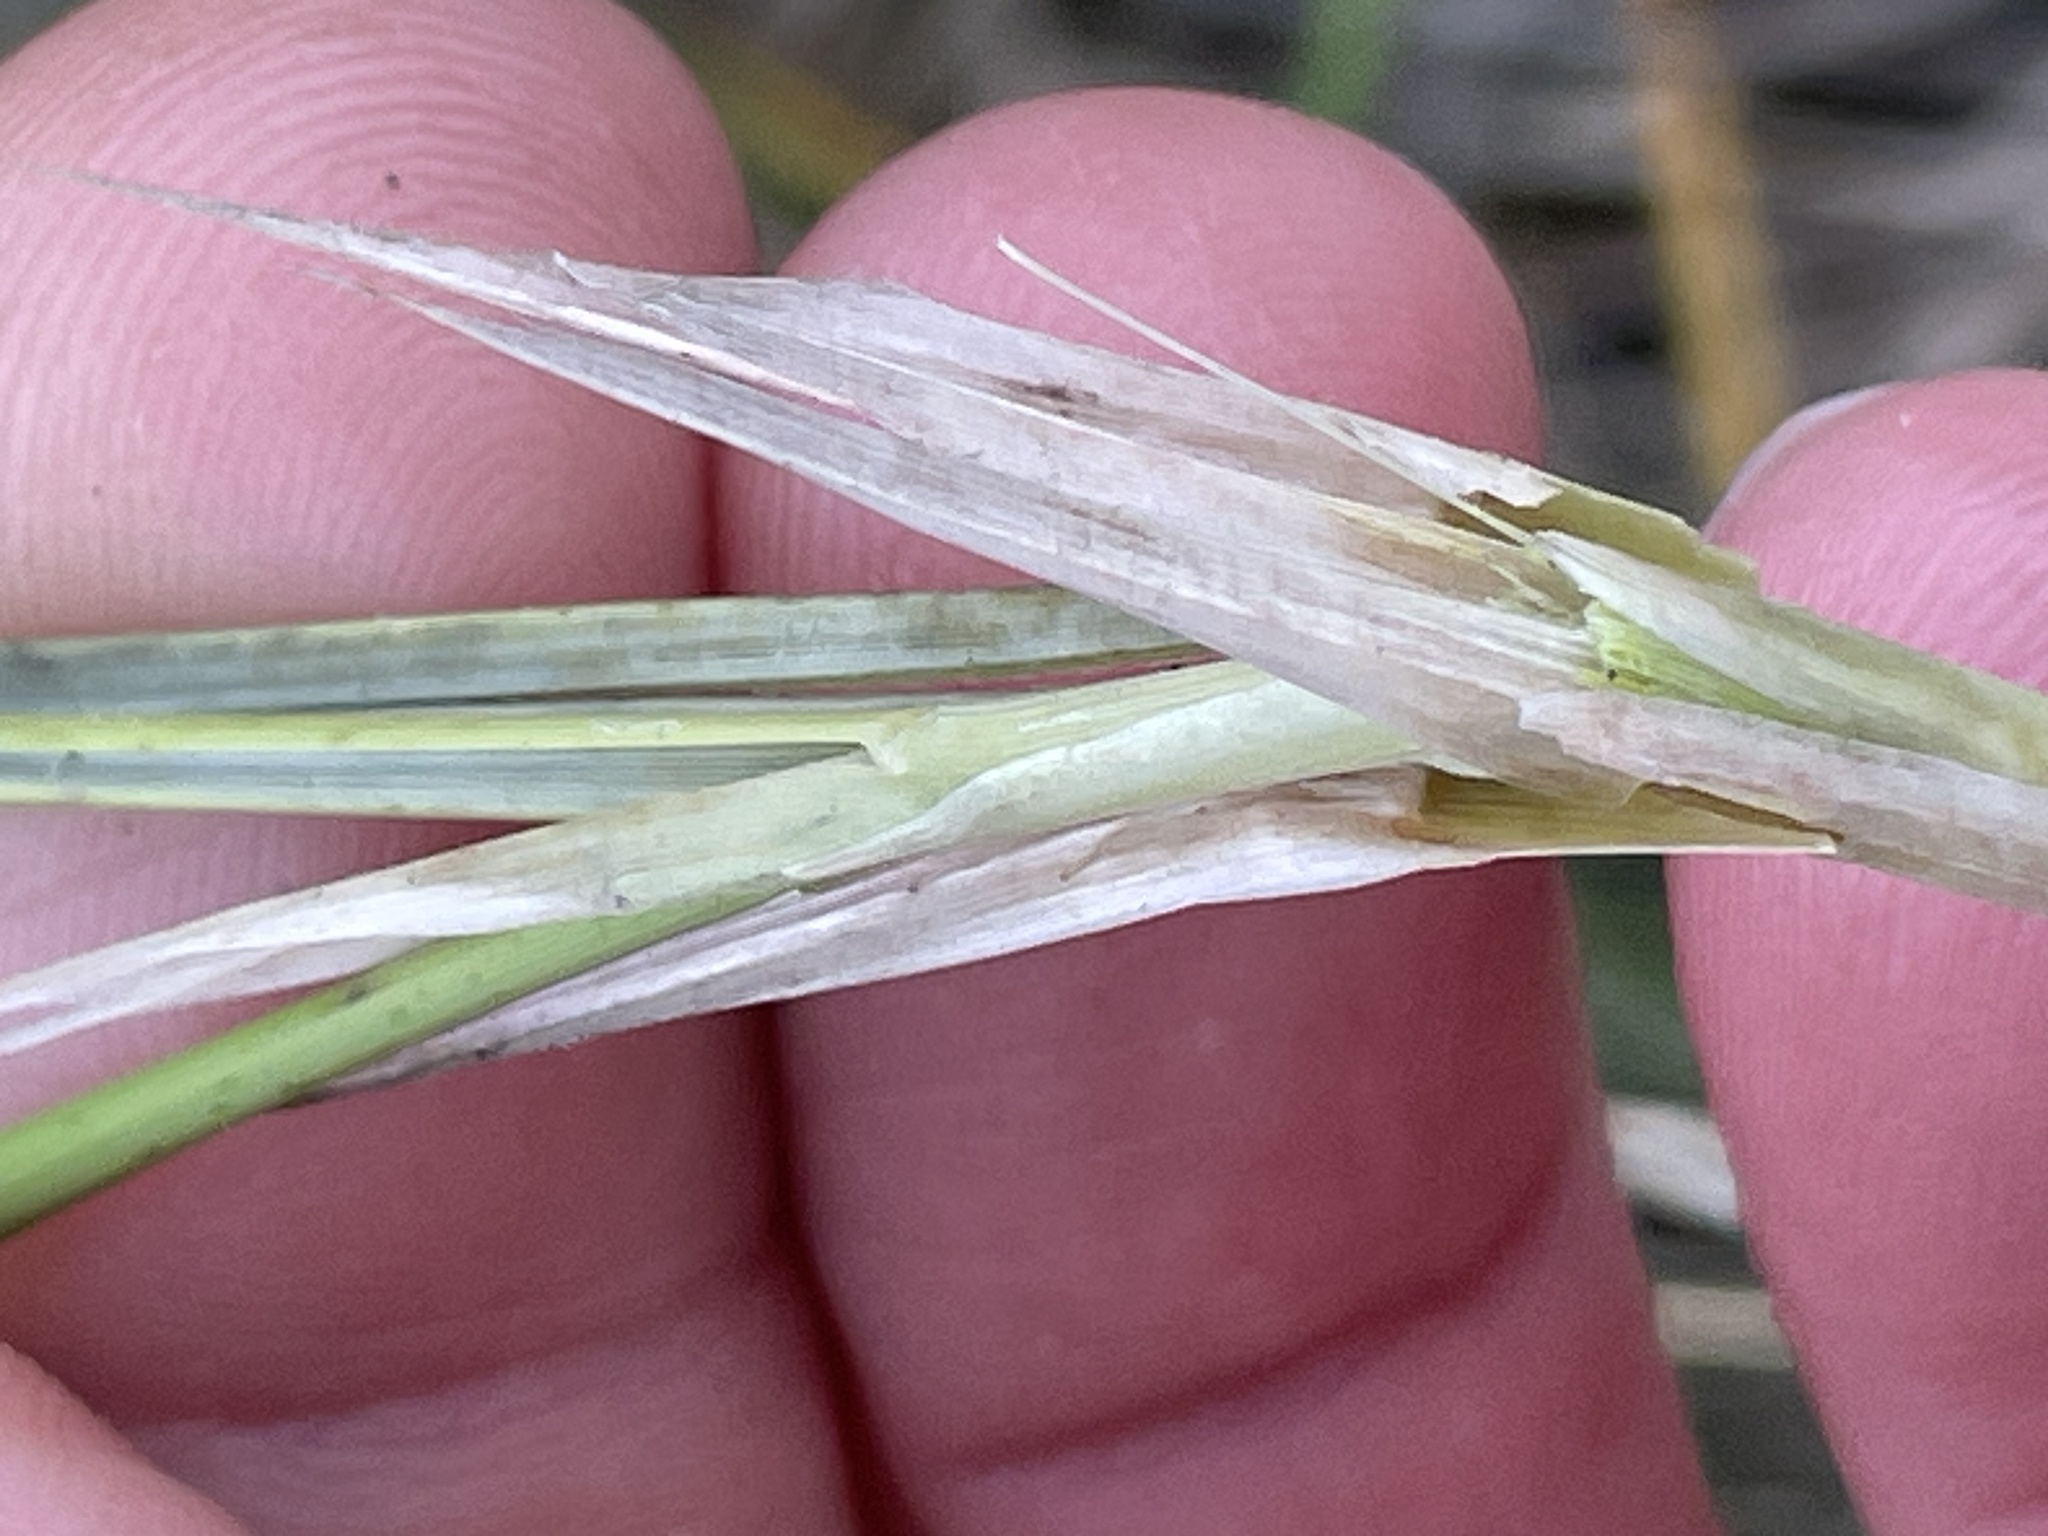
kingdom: Plantae
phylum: Tracheophyta
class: Liliopsida
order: Poales
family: Poaceae
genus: Calamagrostis
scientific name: Calamagrostis arenaria
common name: European beachgrass
